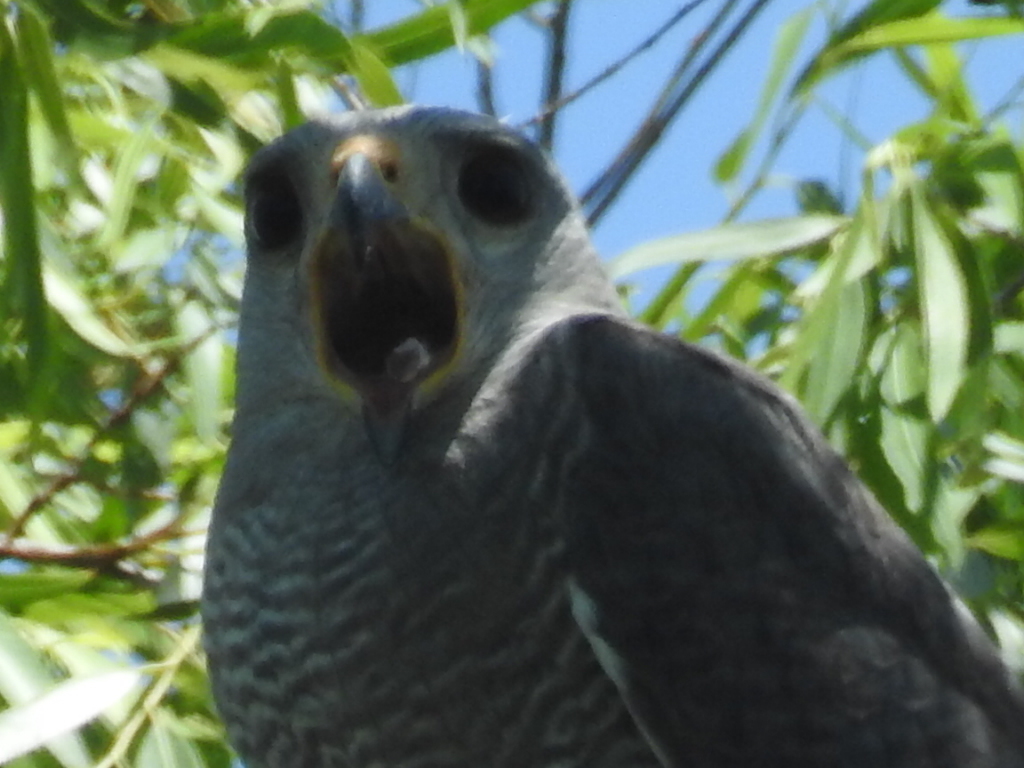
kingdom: Animalia
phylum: Chordata
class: Aves
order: Accipitriformes
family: Accipitridae
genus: Buteo
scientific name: Buteo nitidus
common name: Grey-lined hawk
